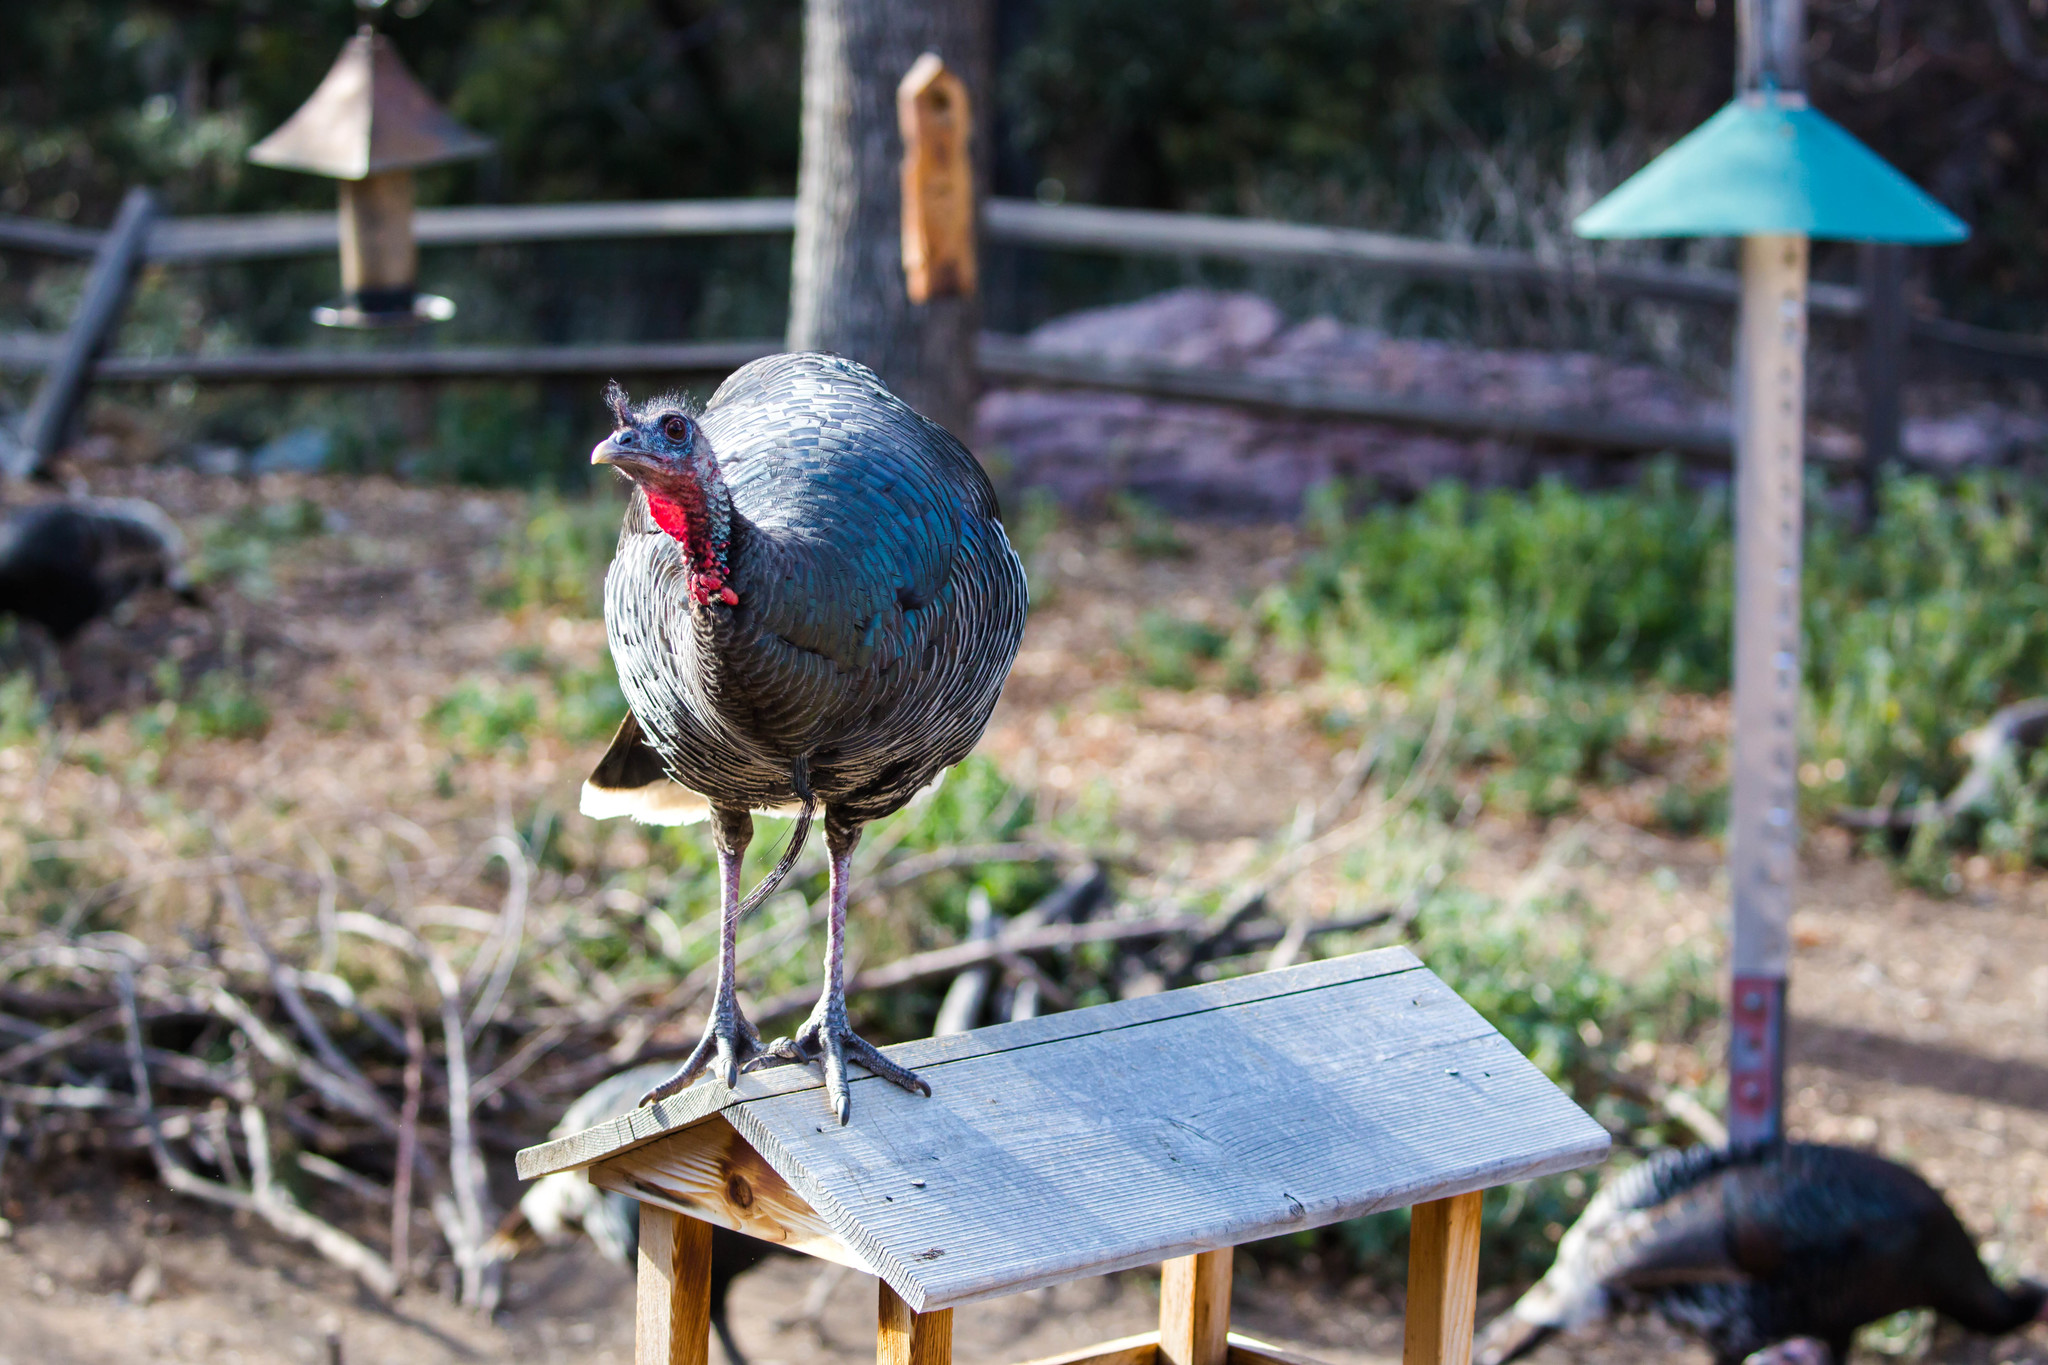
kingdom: Animalia
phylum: Chordata
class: Aves
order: Galliformes
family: Phasianidae
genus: Meleagris
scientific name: Meleagris gallopavo
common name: Wild turkey
